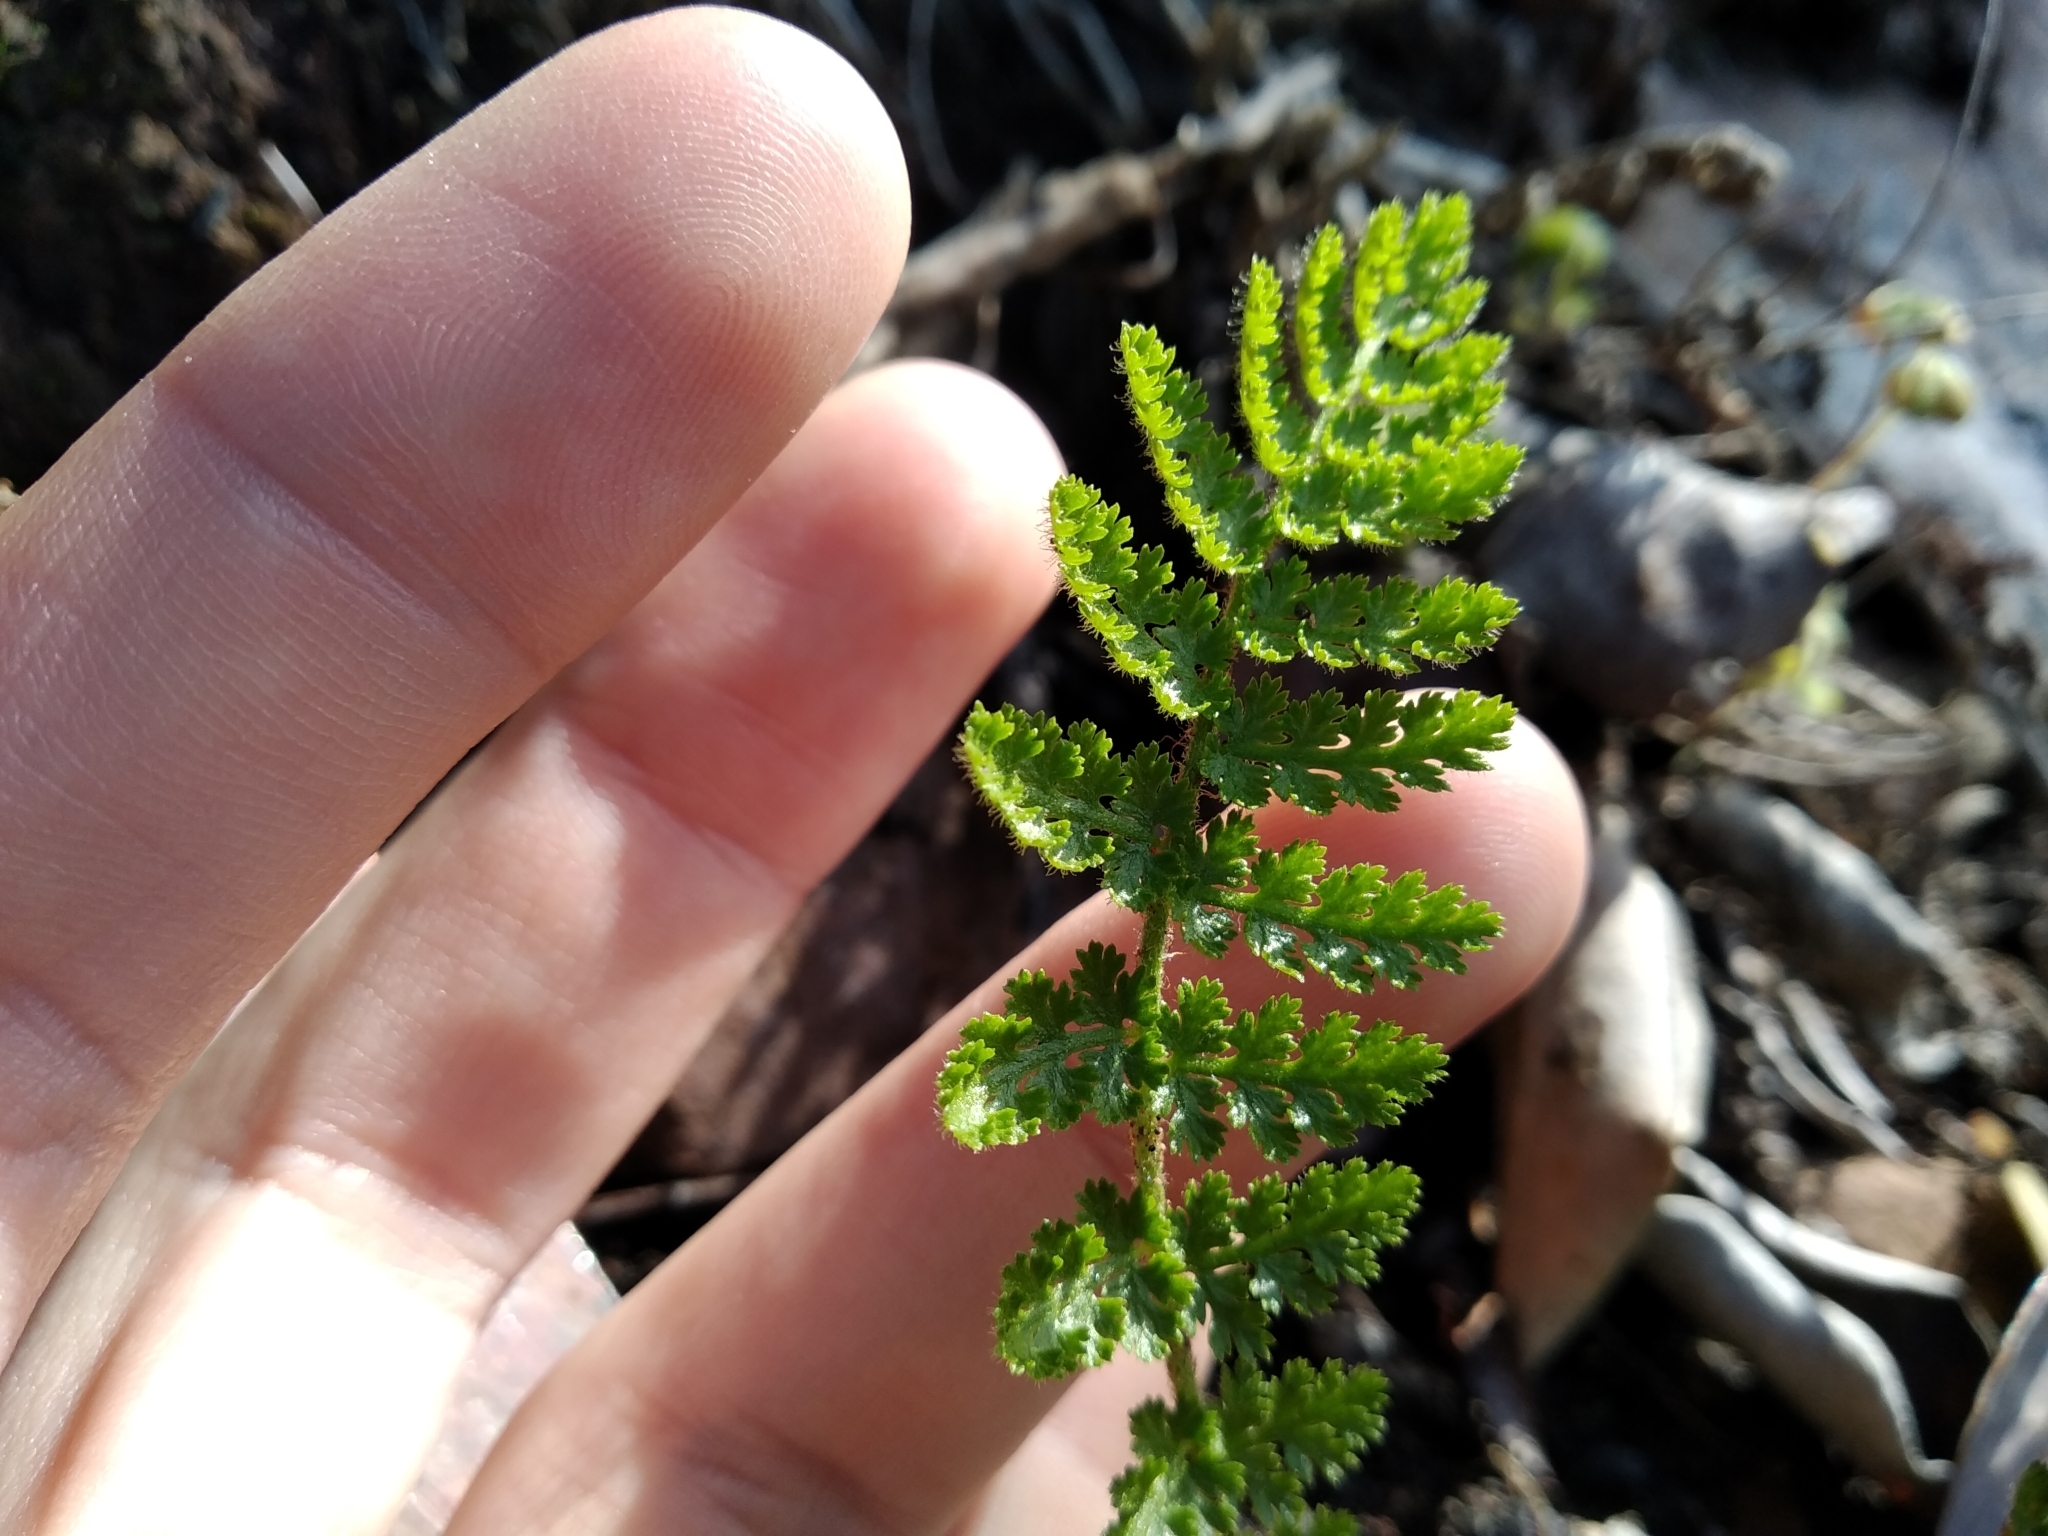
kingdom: Plantae
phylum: Tracheophyta
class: Polypodiopsida
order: Schizaeales
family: Anemiaceae
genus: Anemia
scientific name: Anemia caffrorum
